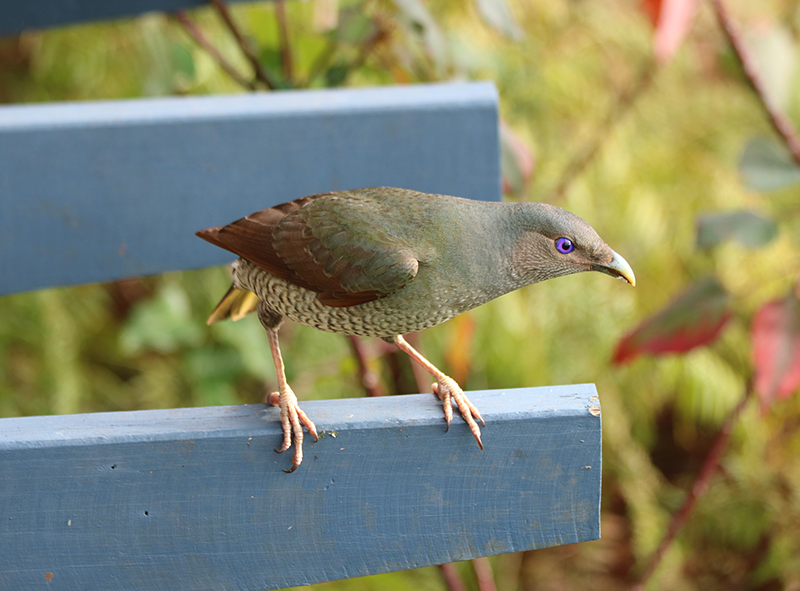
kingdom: Animalia
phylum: Chordata
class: Aves
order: Passeriformes
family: Ptilonorhynchidae
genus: Ptilonorhynchus
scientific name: Ptilonorhynchus violaceus
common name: Satin bowerbird
